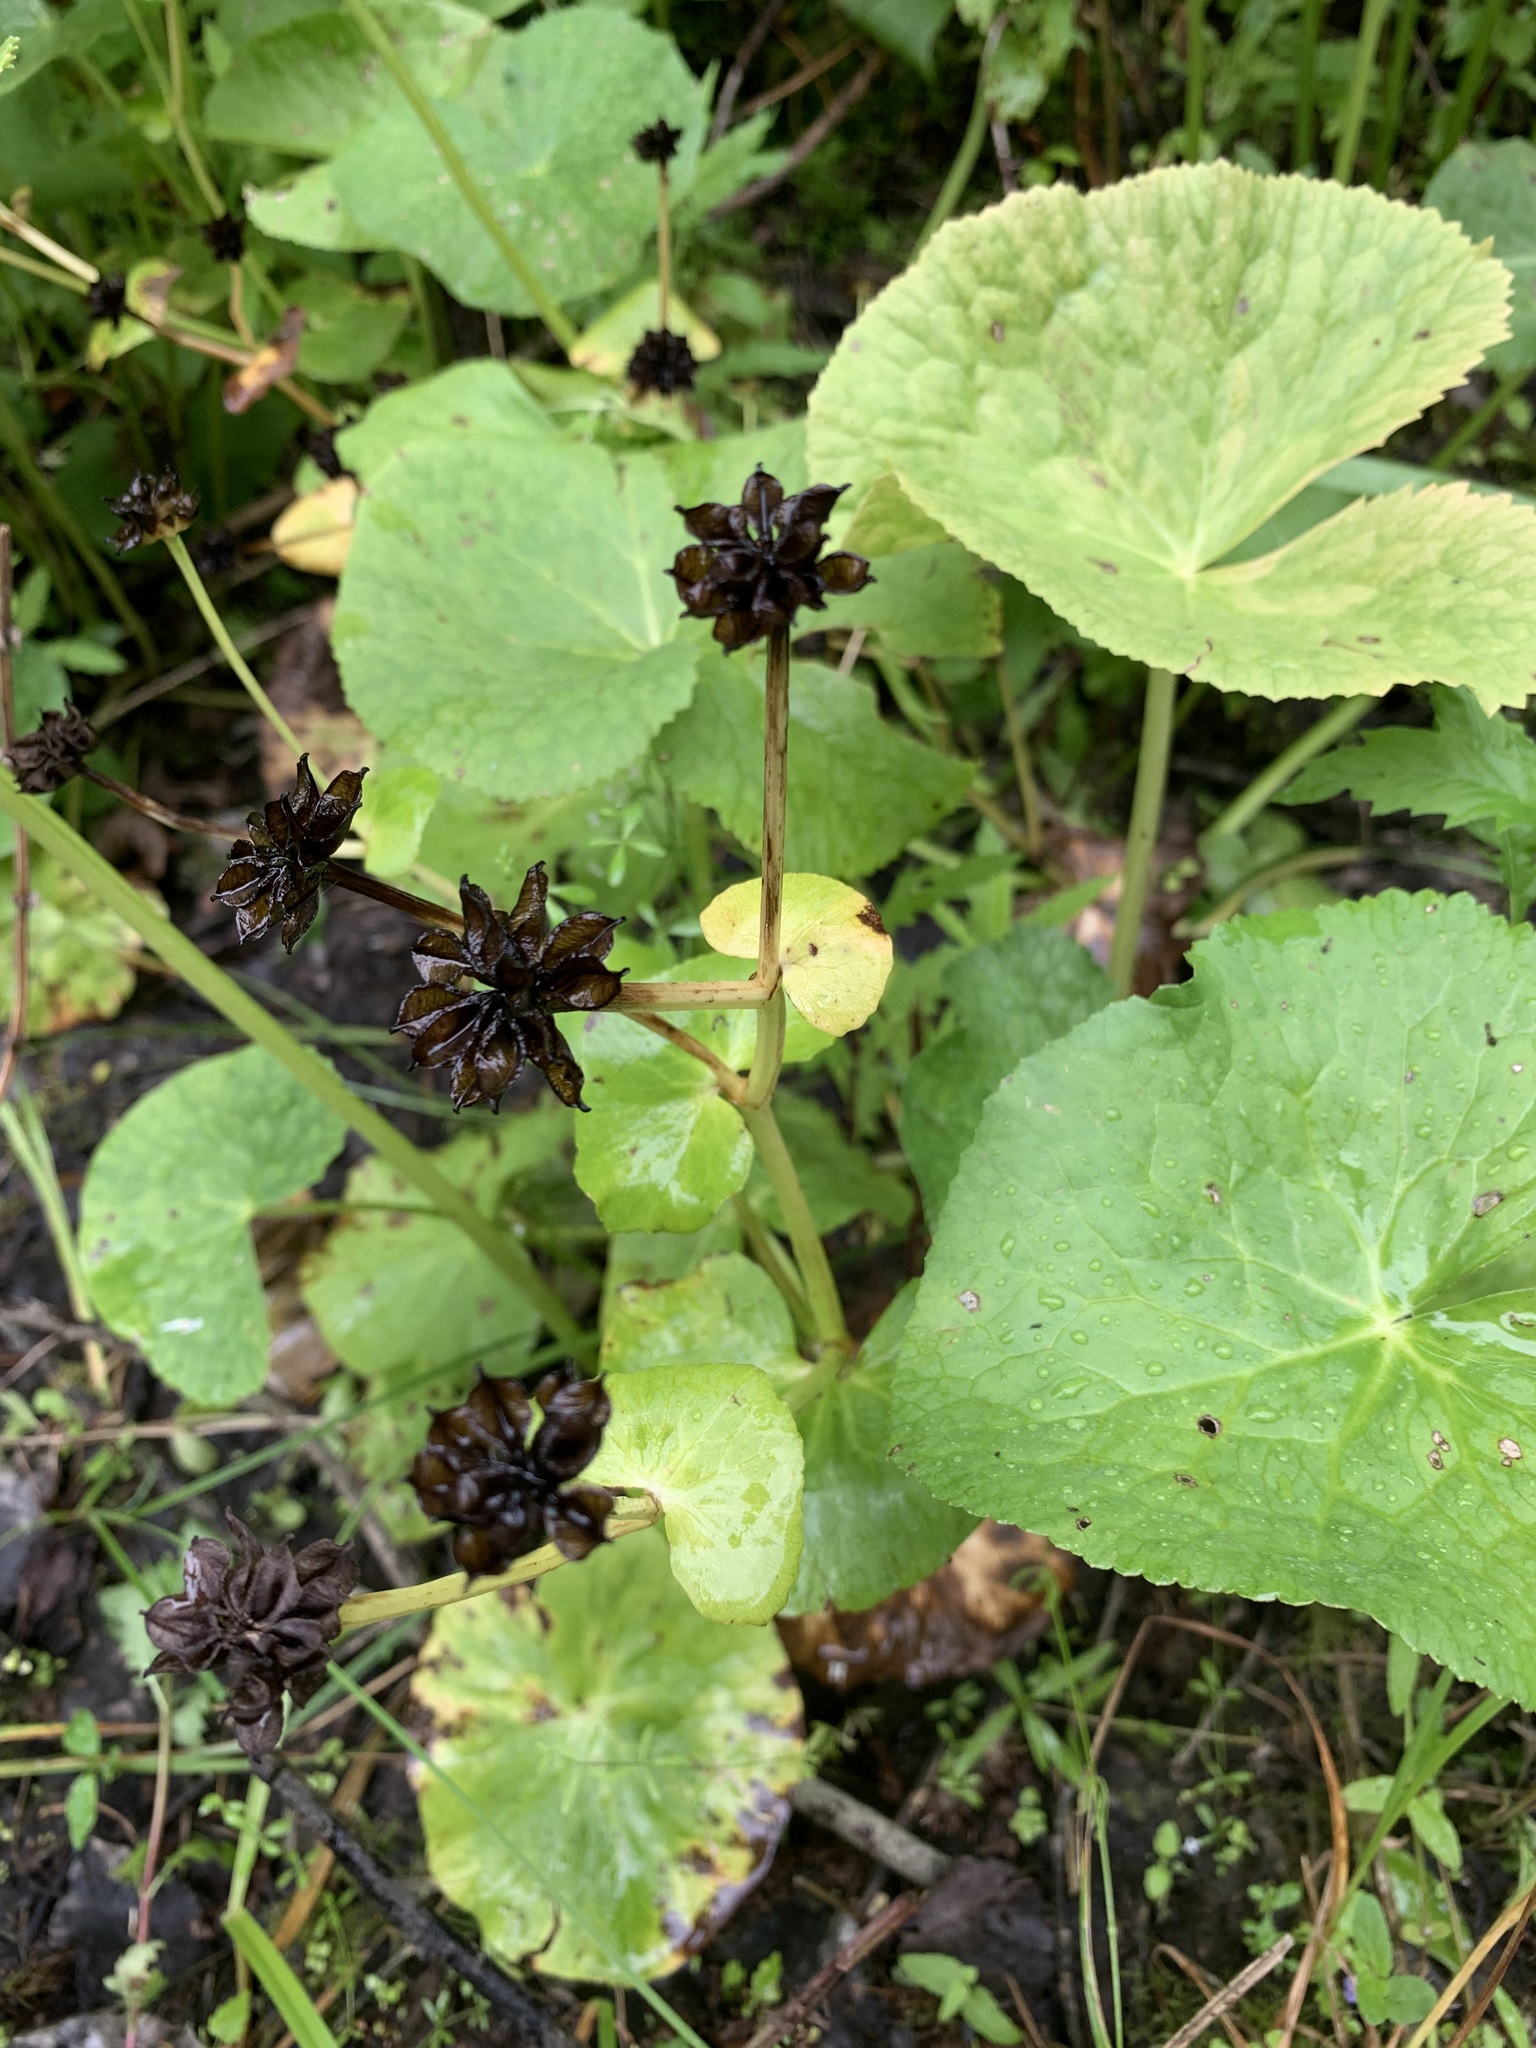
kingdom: Plantae
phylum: Tracheophyta
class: Magnoliopsida
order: Ranunculales
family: Ranunculaceae
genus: Caltha
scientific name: Caltha palustris
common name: Marsh marigold
